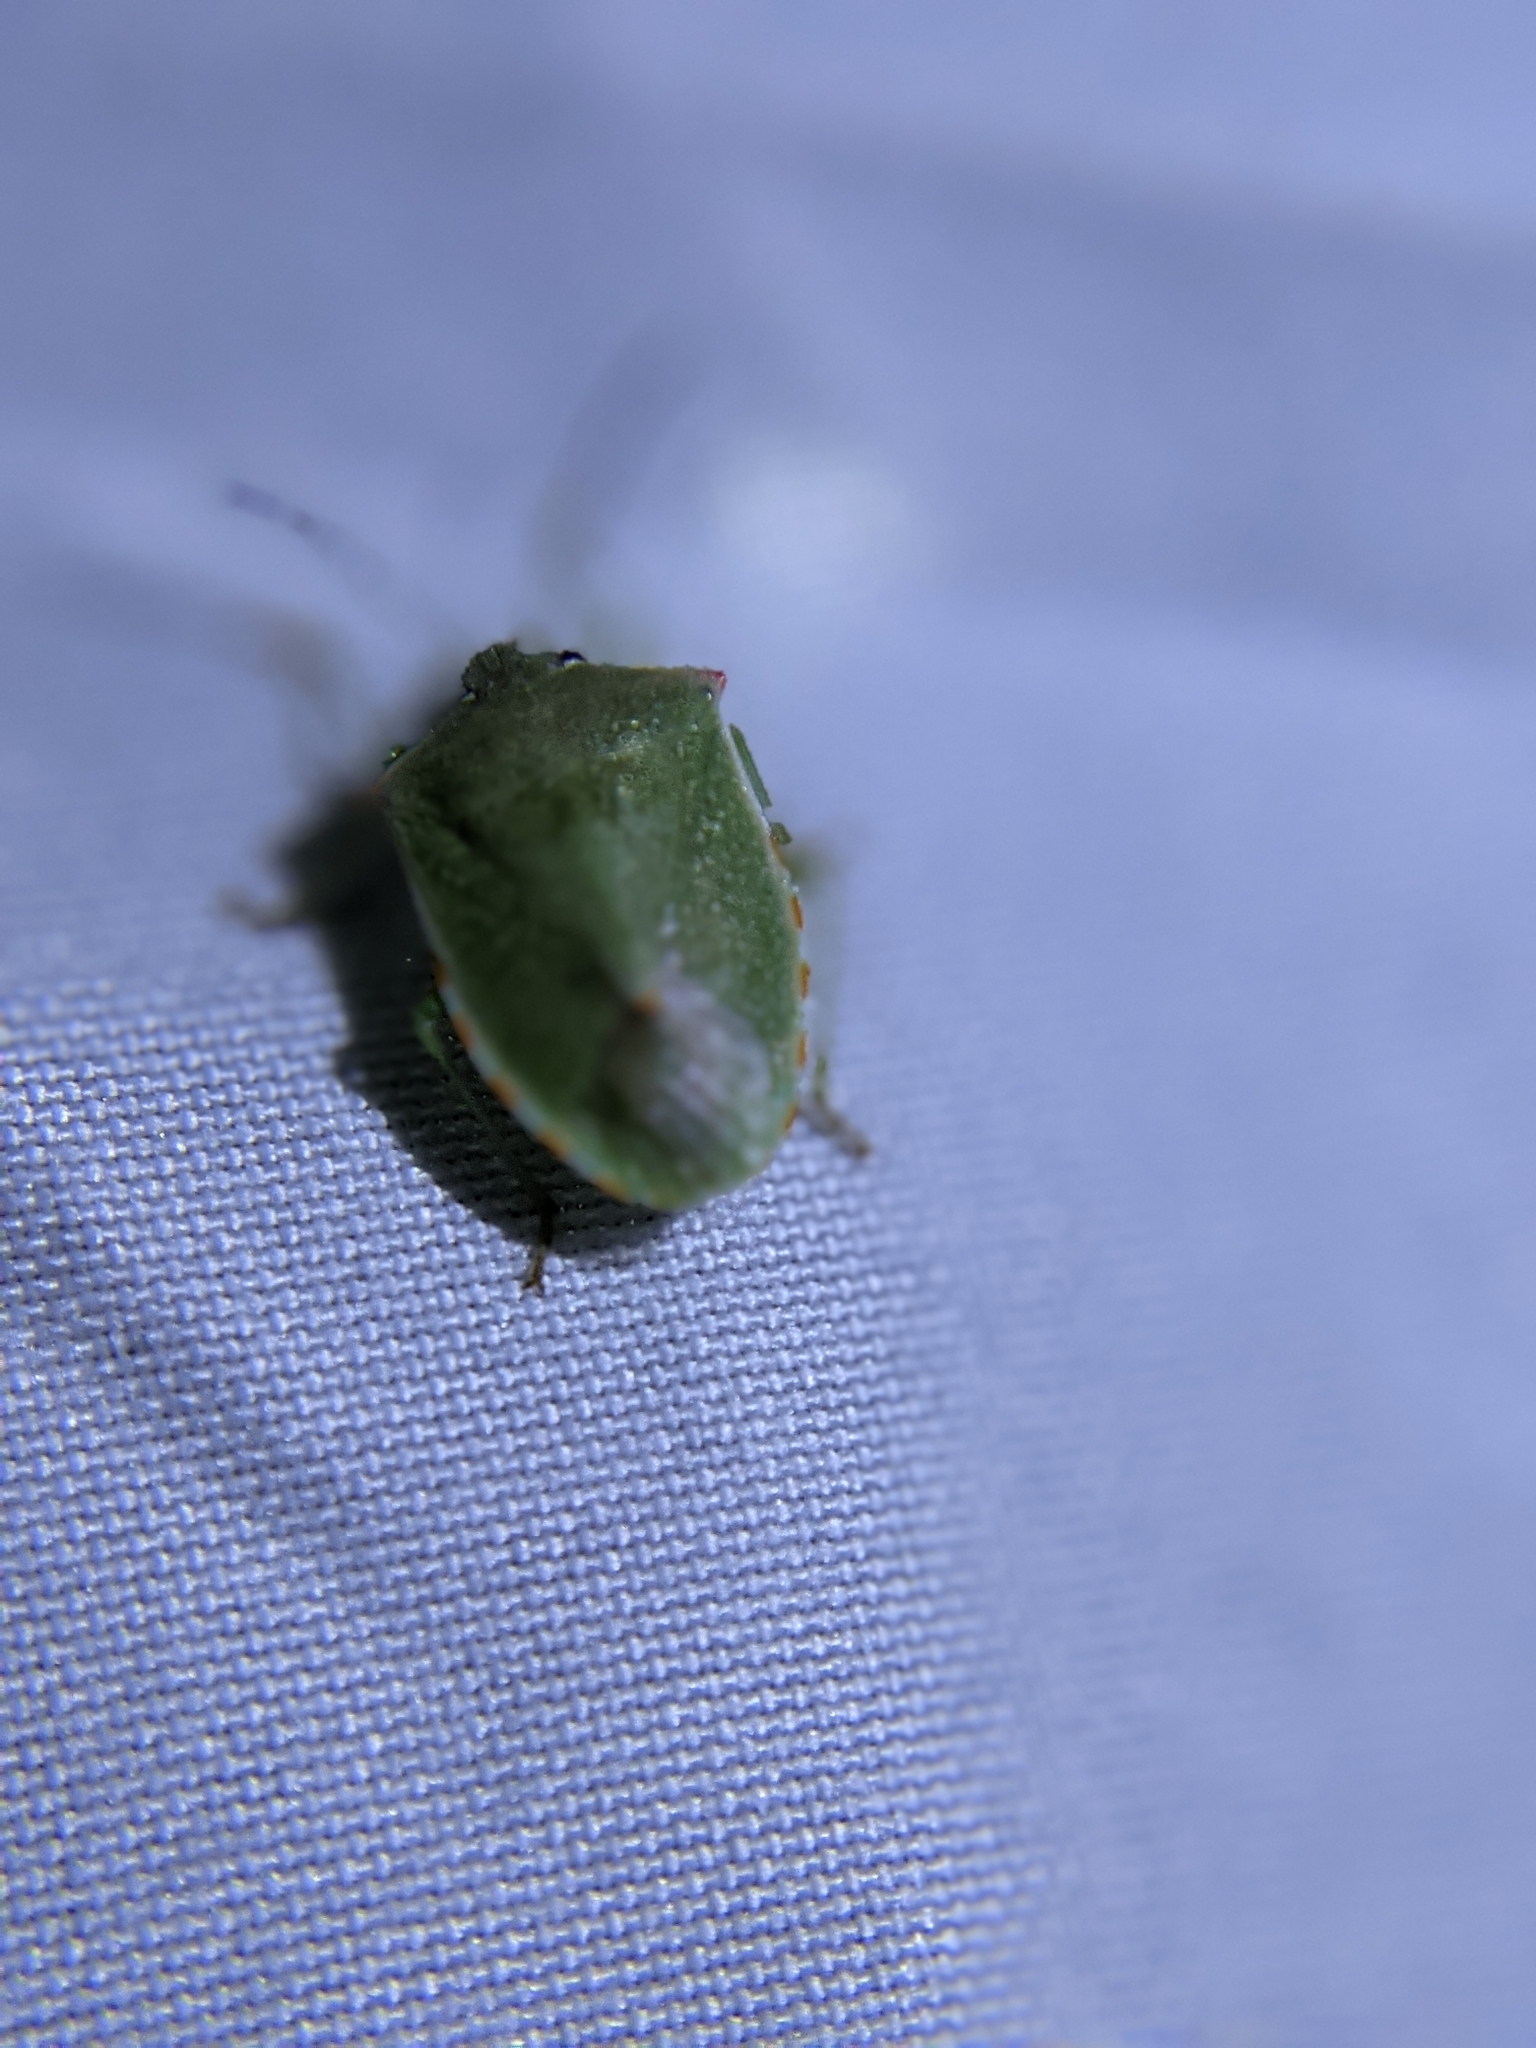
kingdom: Animalia
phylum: Arthropoda
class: Insecta
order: Hemiptera
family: Pentatomidae
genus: Thyanta
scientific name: Thyanta custator
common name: Stink bug
